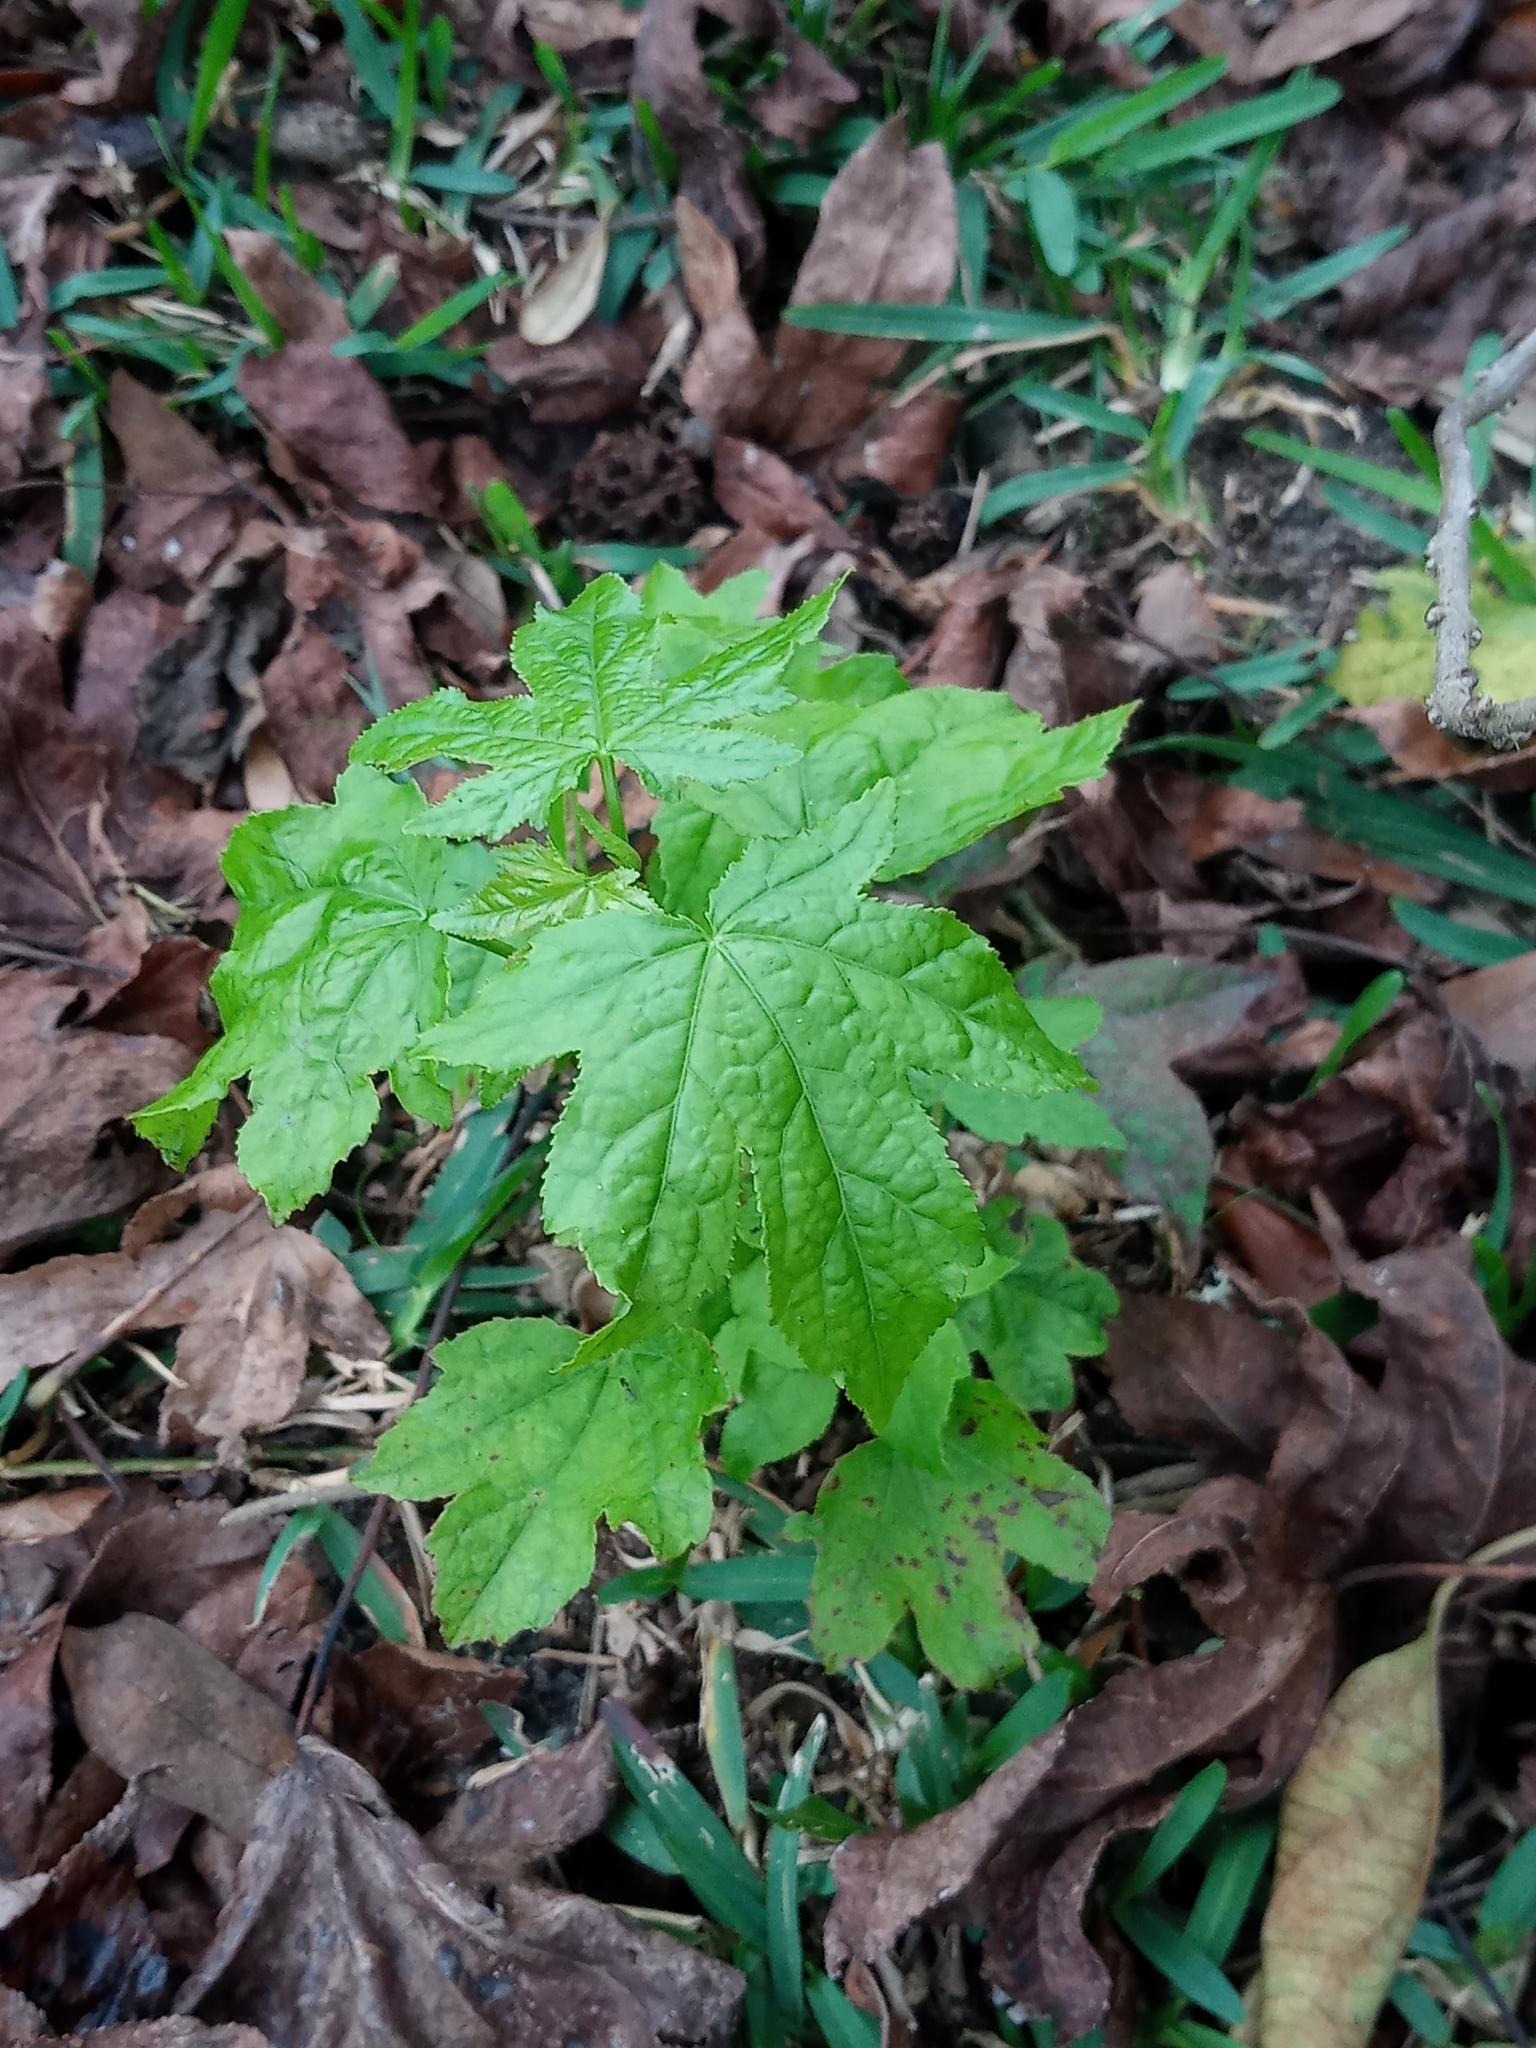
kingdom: Plantae
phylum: Tracheophyta
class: Magnoliopsida
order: Saxifragales
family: Altingiaceae
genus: Liquidambar
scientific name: Liquidambar styraciflua
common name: Sweet gum
